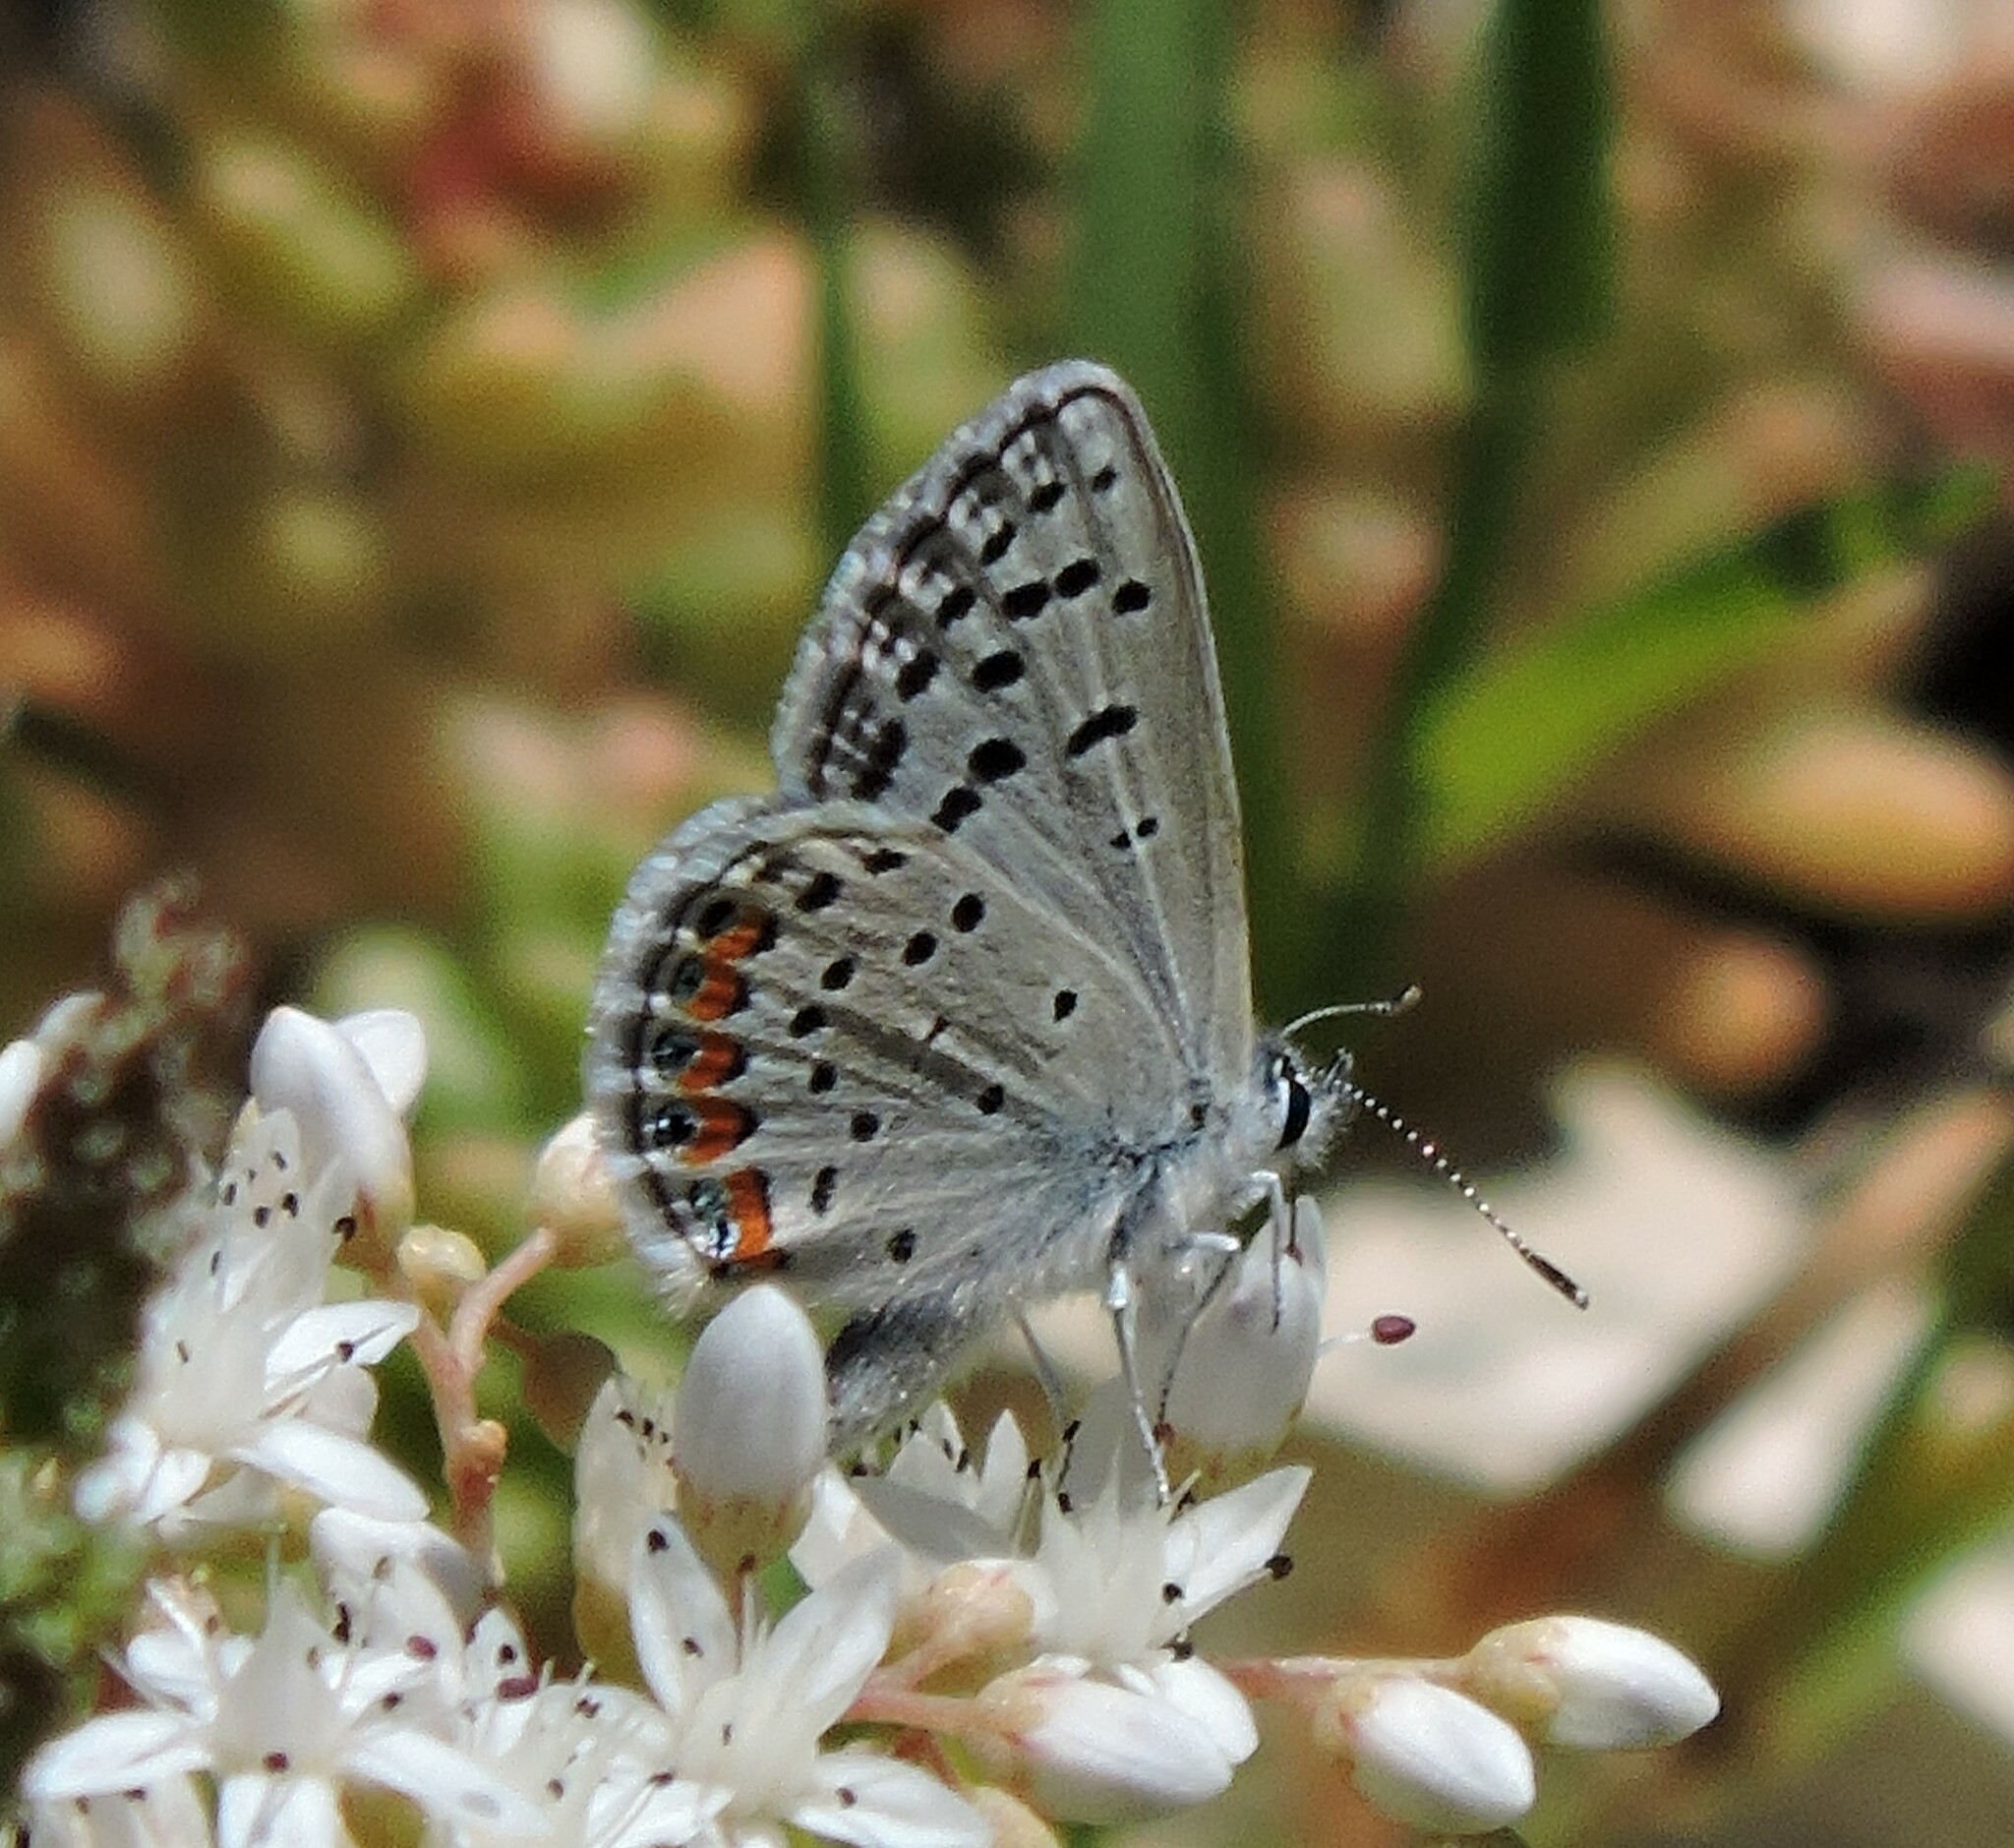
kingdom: Animalia
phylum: Arthropoda
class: Insecta
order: Lepidoptera
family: Lycaenidae
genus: Icaricia
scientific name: Icaricia acmon
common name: Acmon blue
